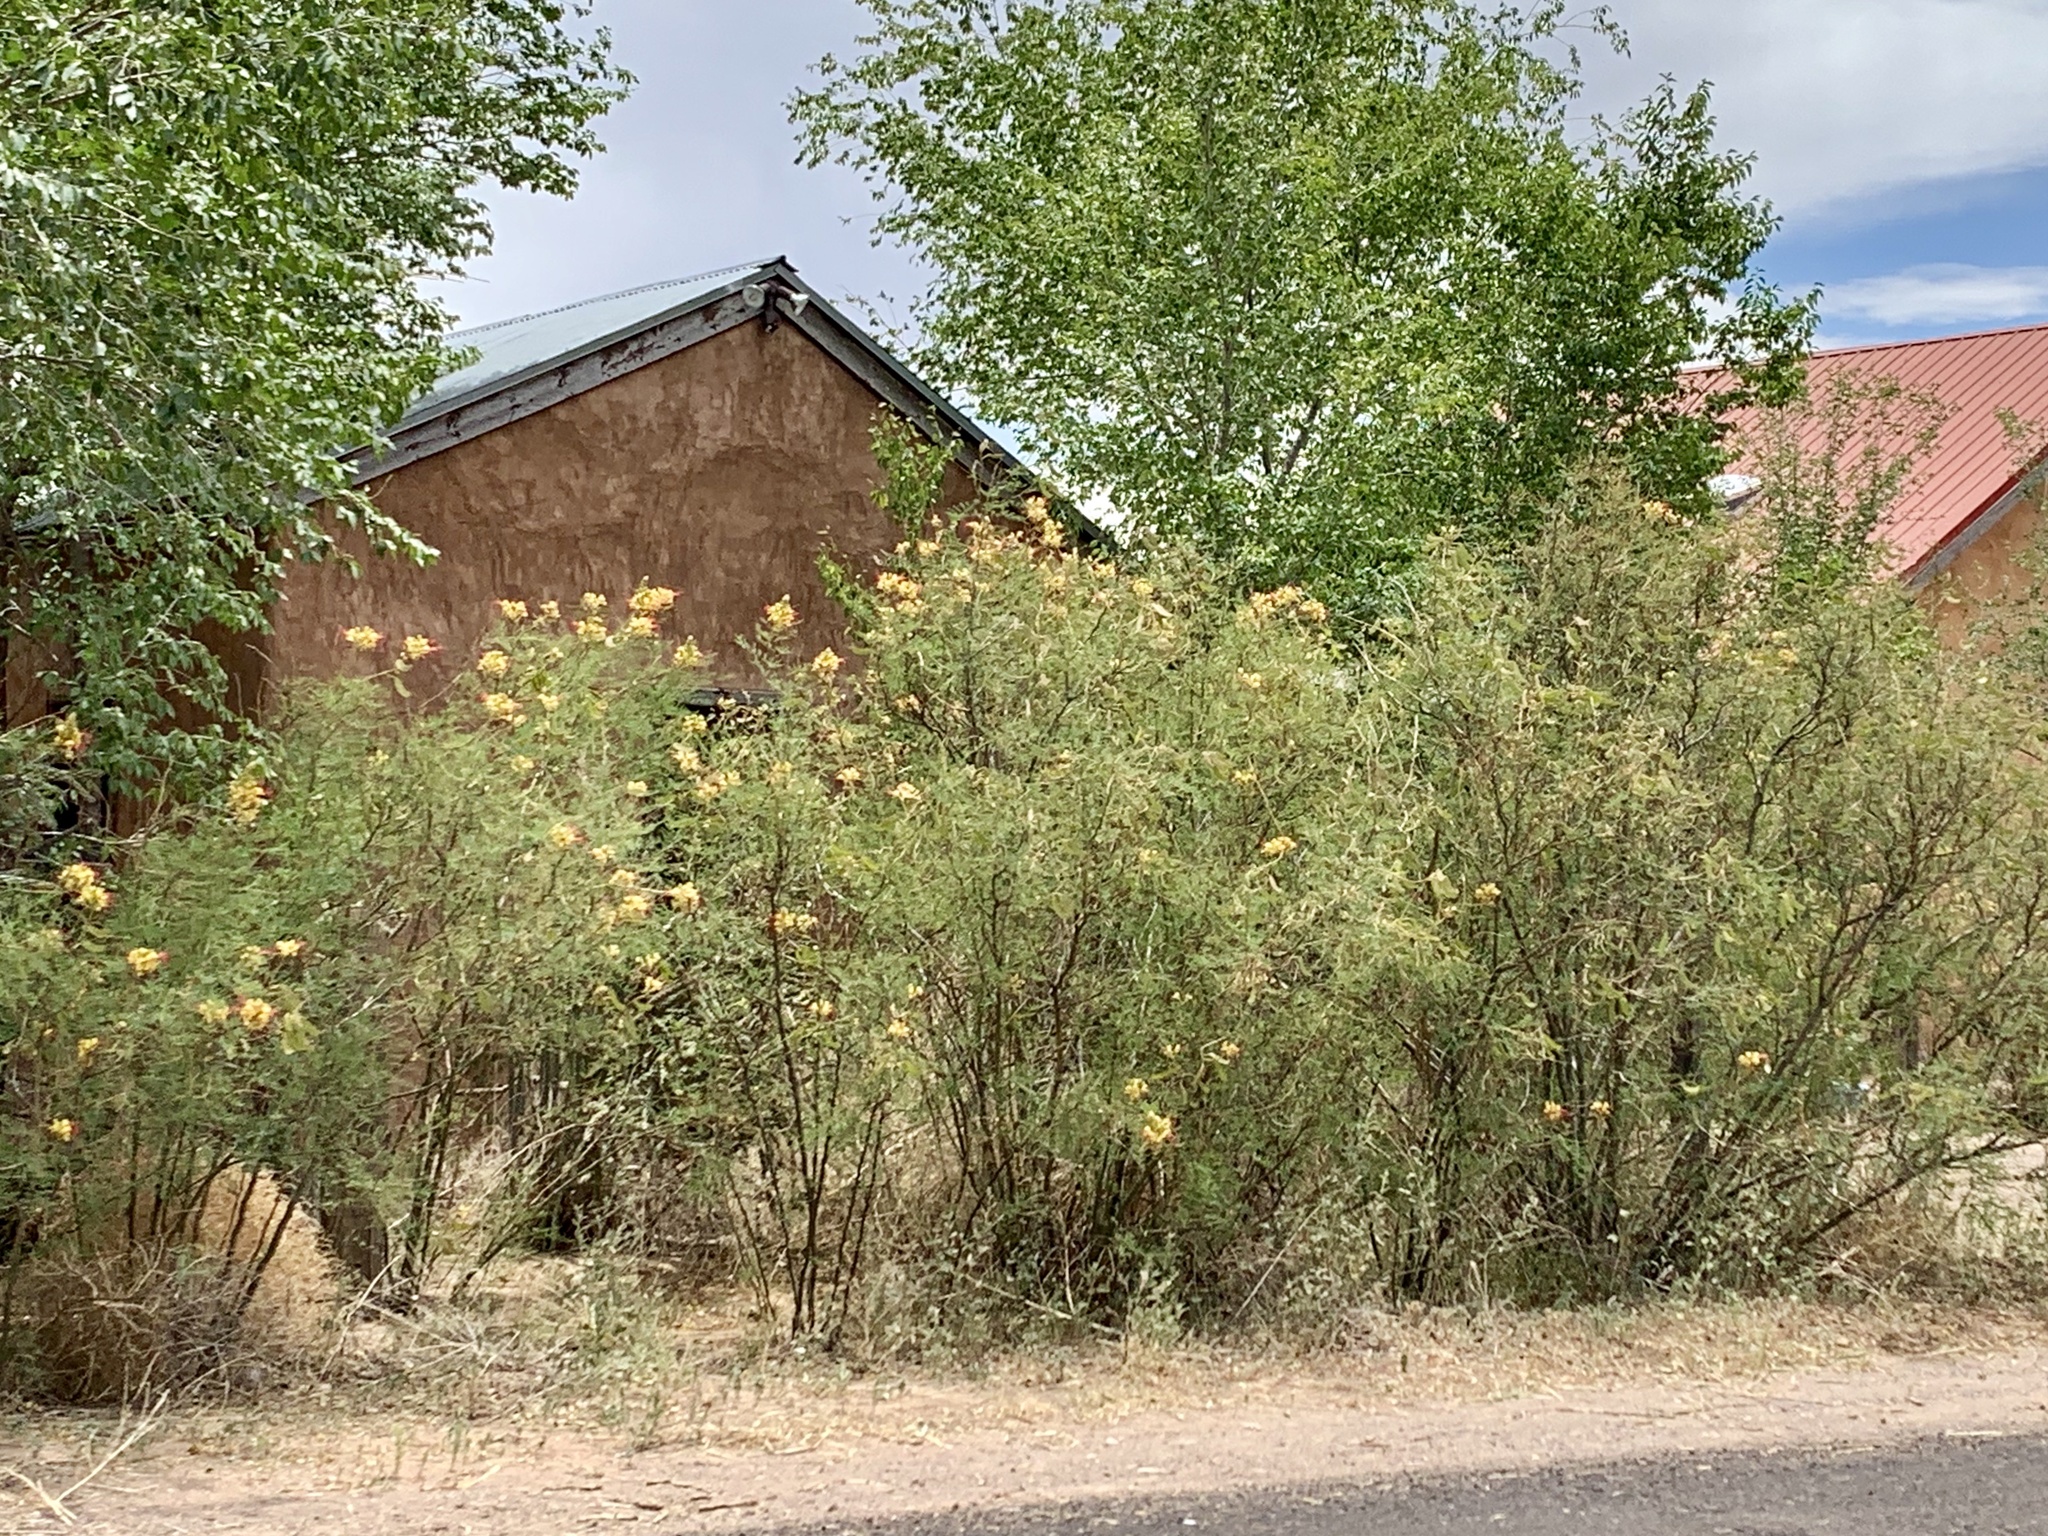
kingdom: Plantae
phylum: Tracheophyta
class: Magnoliopsida
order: Fabales
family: Fabaceae
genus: Erythrostemon
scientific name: Erythrostemon gilliesii
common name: Bird-of-paradise shrub
